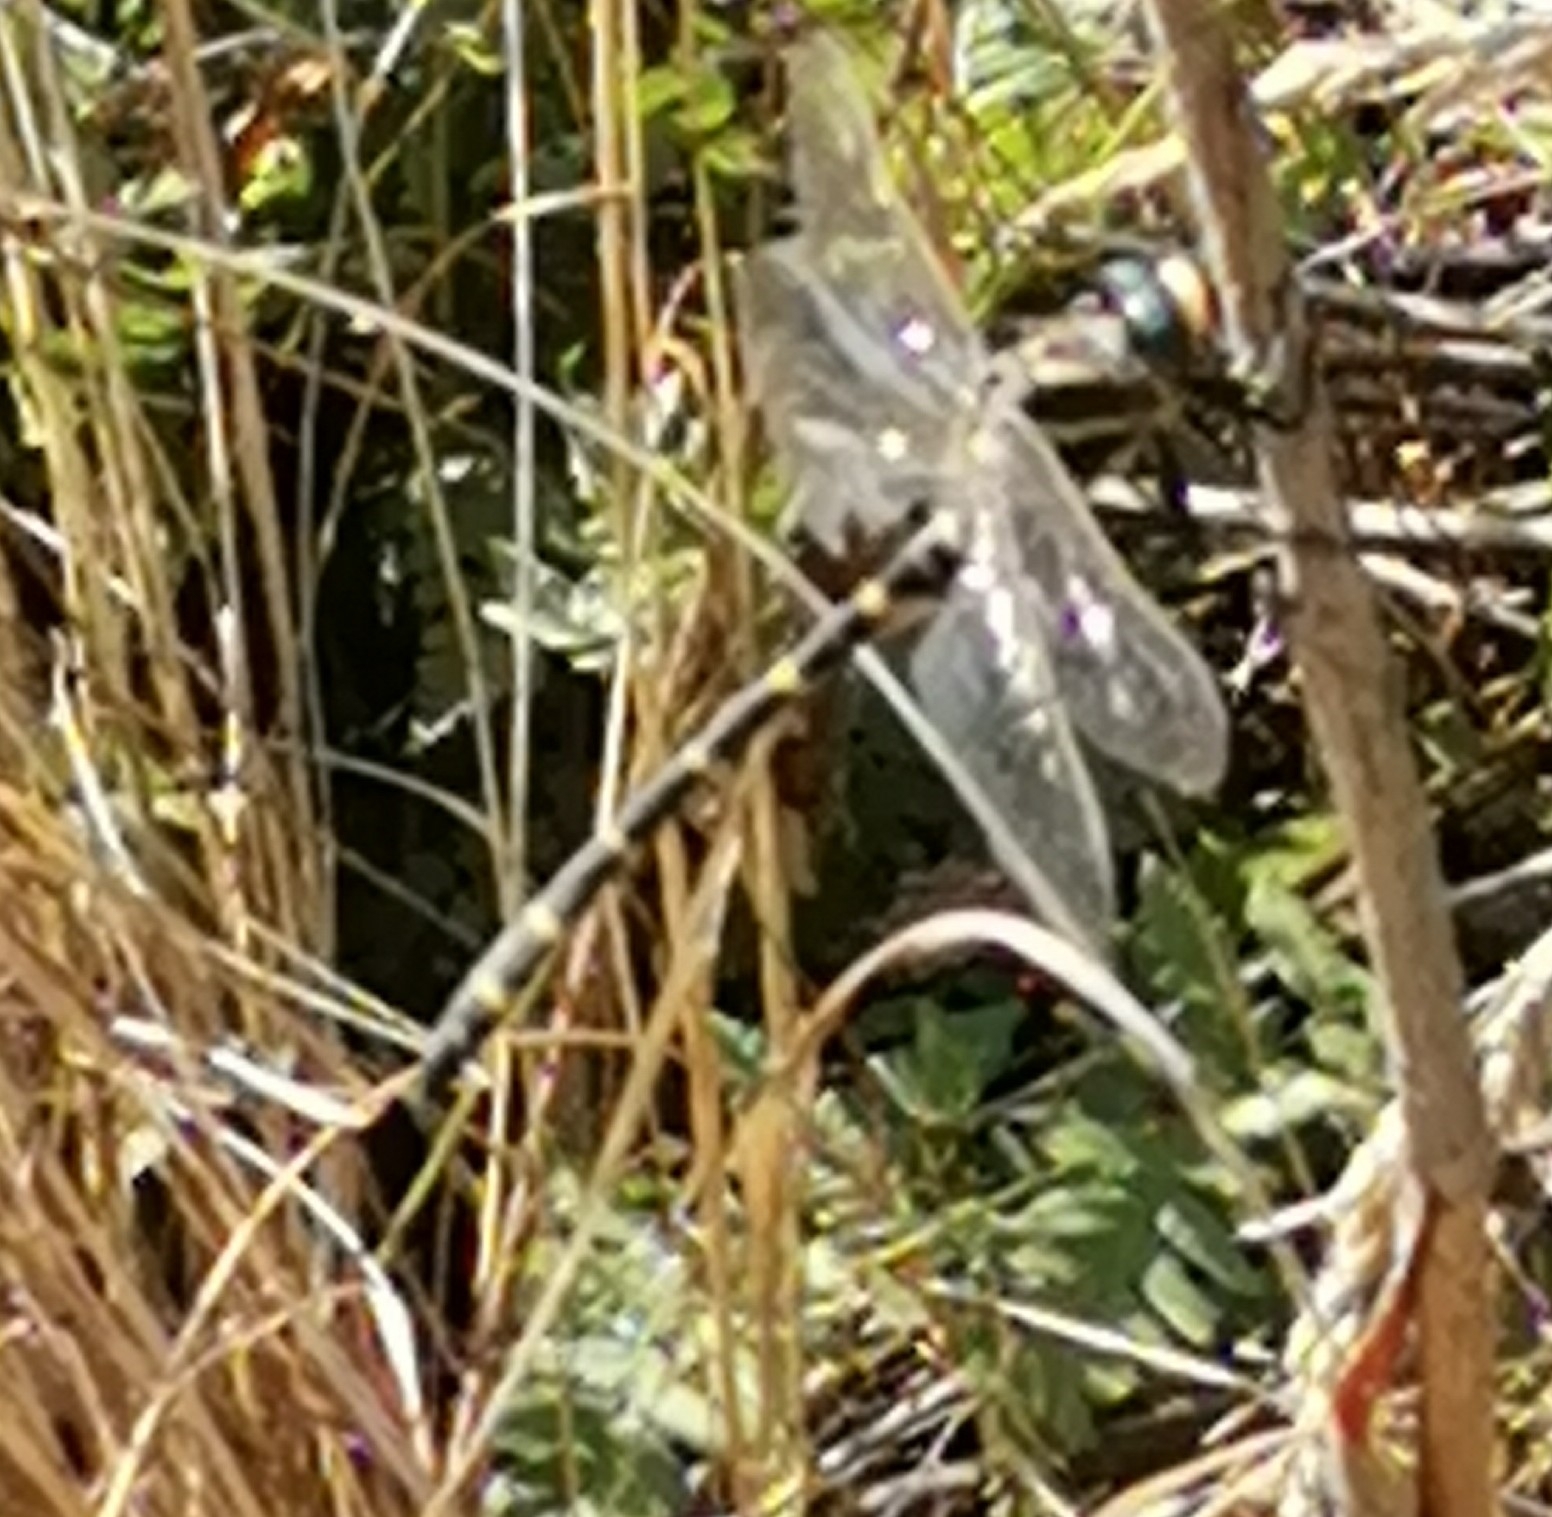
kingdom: Animalia
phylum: Arthropoda
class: Insecta
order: Odonata
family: Cordulegastridae
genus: Cordulegaster
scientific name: Cordulegaster boltonii
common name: Golden-ringed dragonfly
